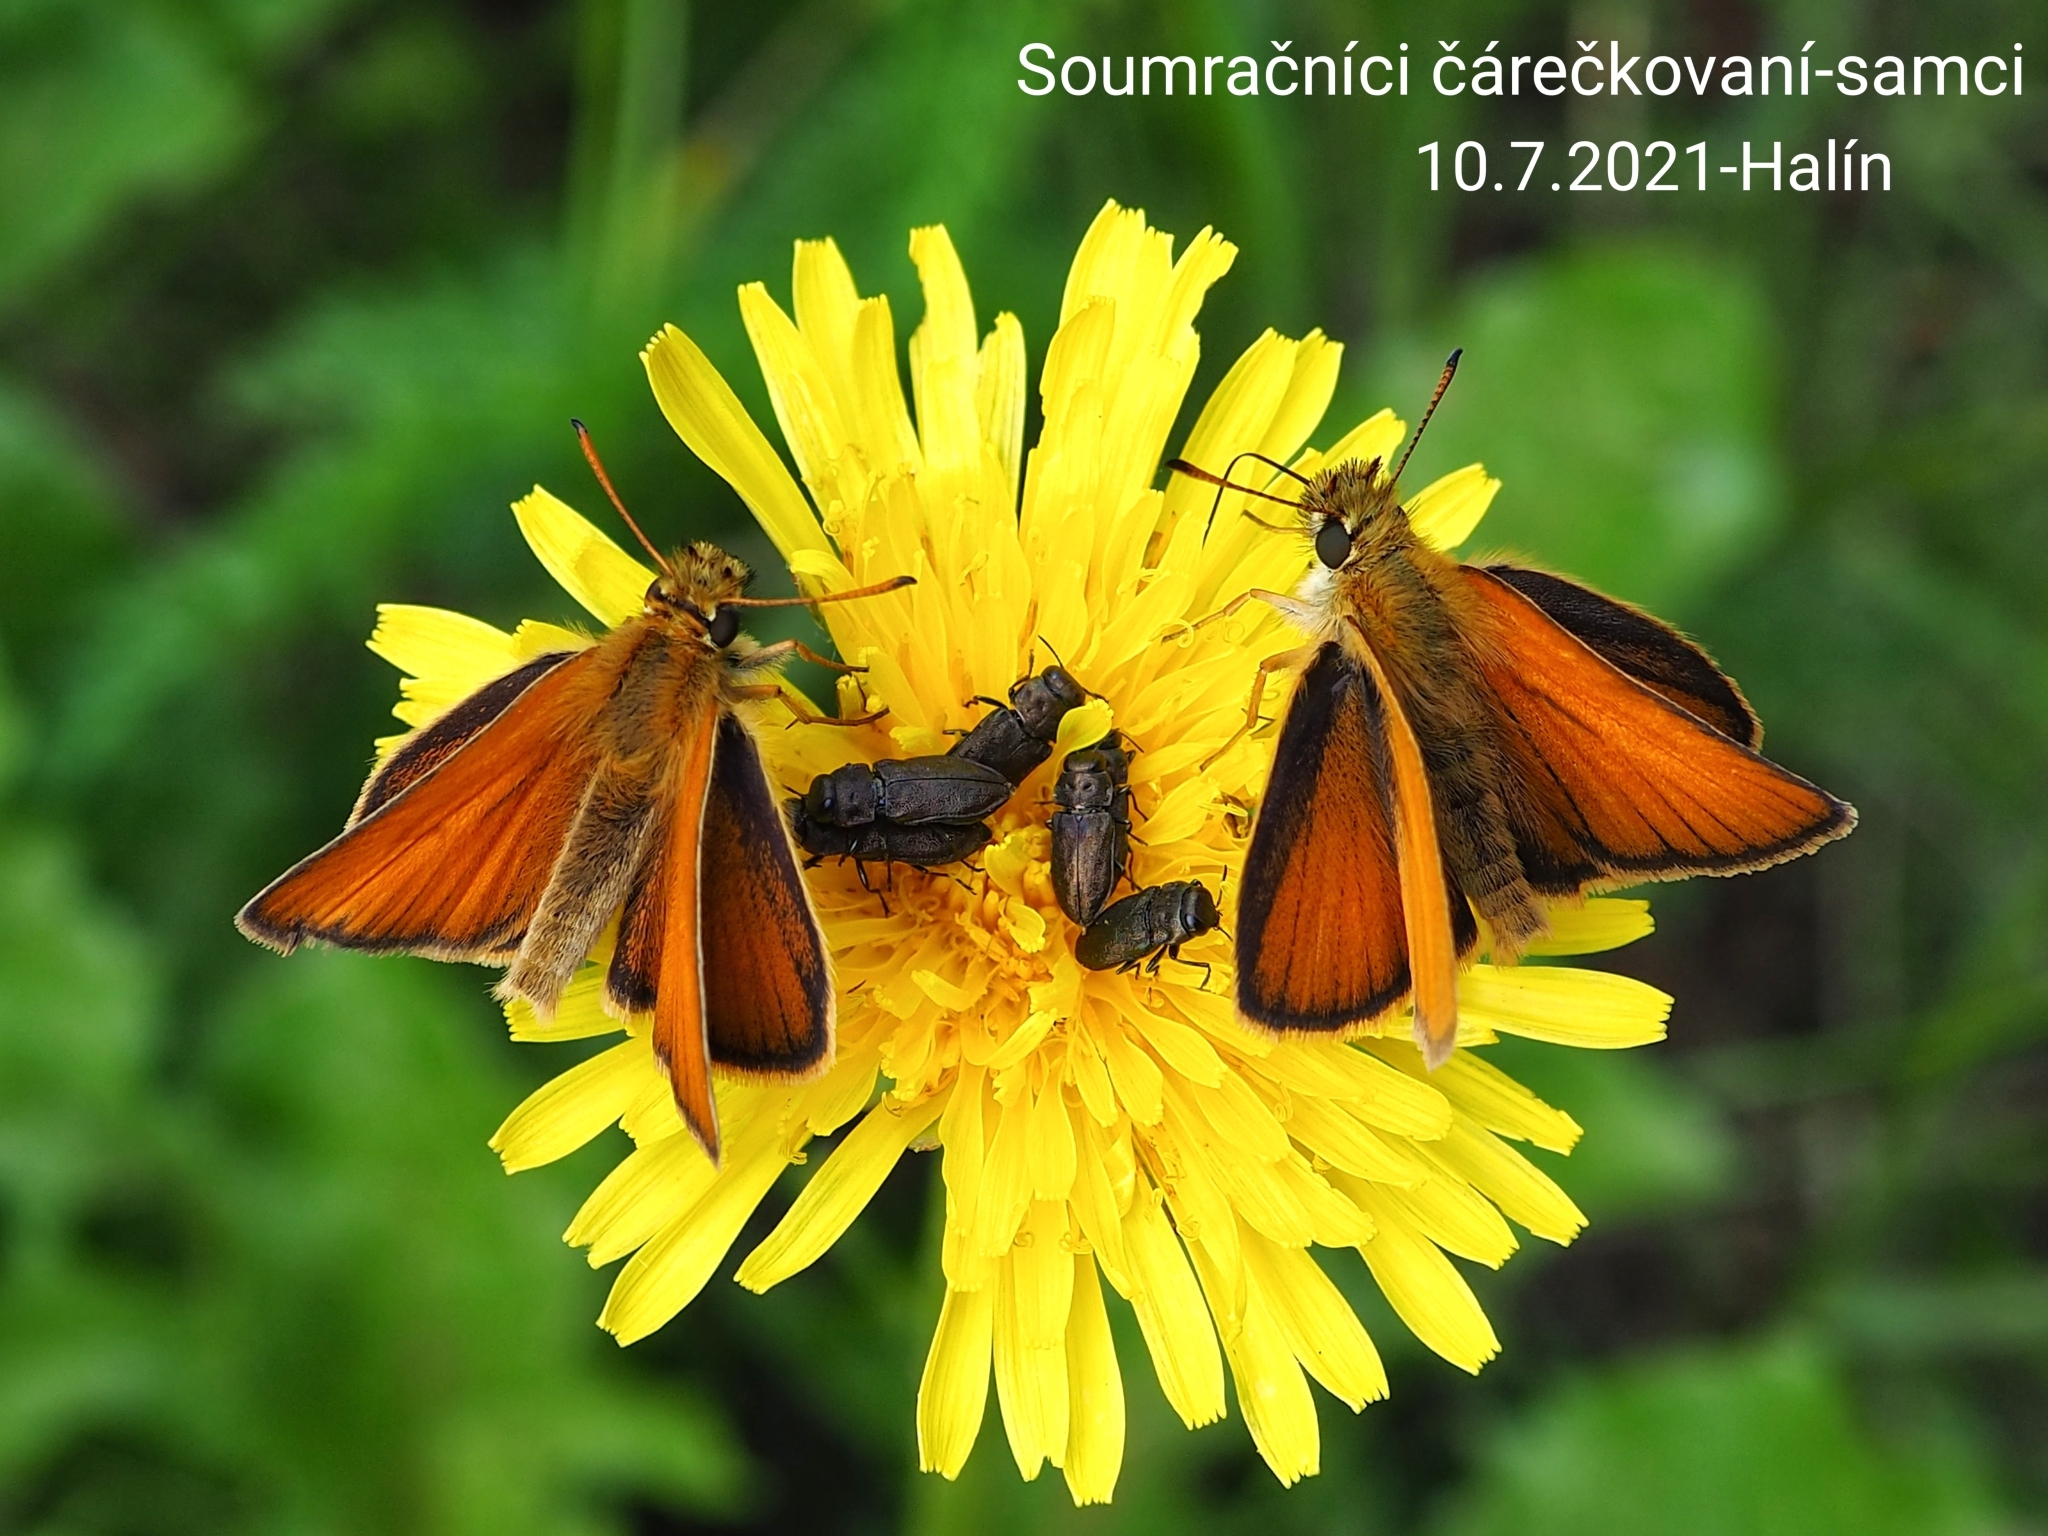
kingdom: Animalia
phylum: Arthropoda
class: Insecta
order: Lepidoptera
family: Hesperiidae
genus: Thymelicus
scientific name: Thymelicus lineola
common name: Essex skipper
